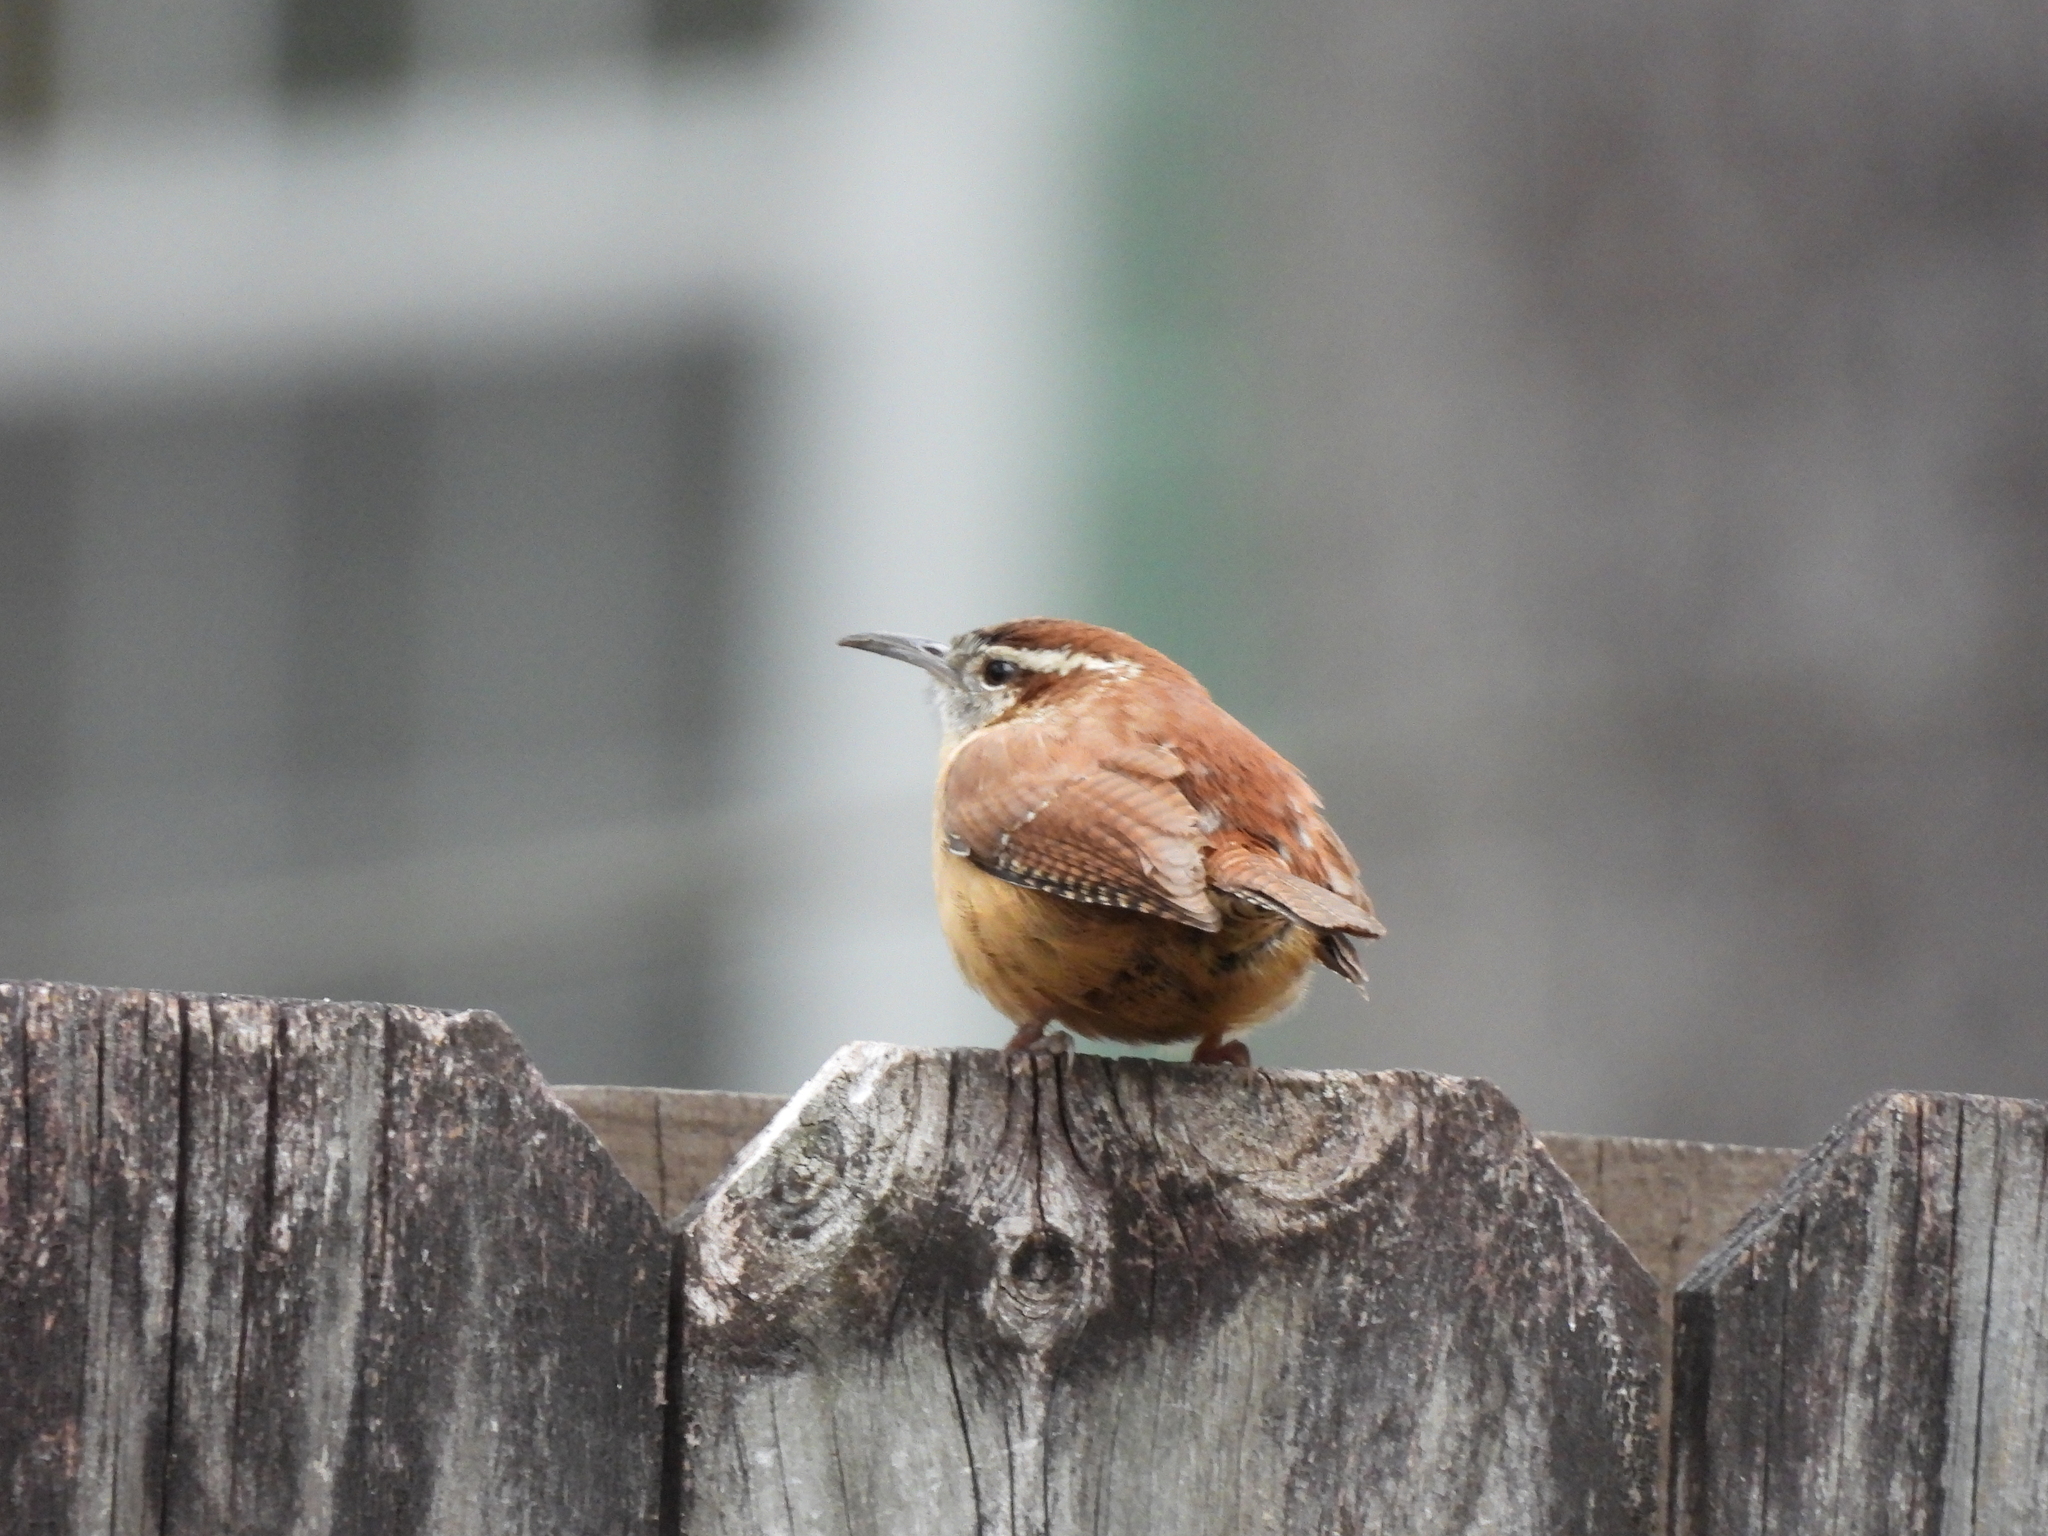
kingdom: Animalia
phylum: Chordata
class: Aves
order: Passeriformes
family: Troglodytidae
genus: Thryothorus
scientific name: Thryothorus ludovicianus
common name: Carolina wren
